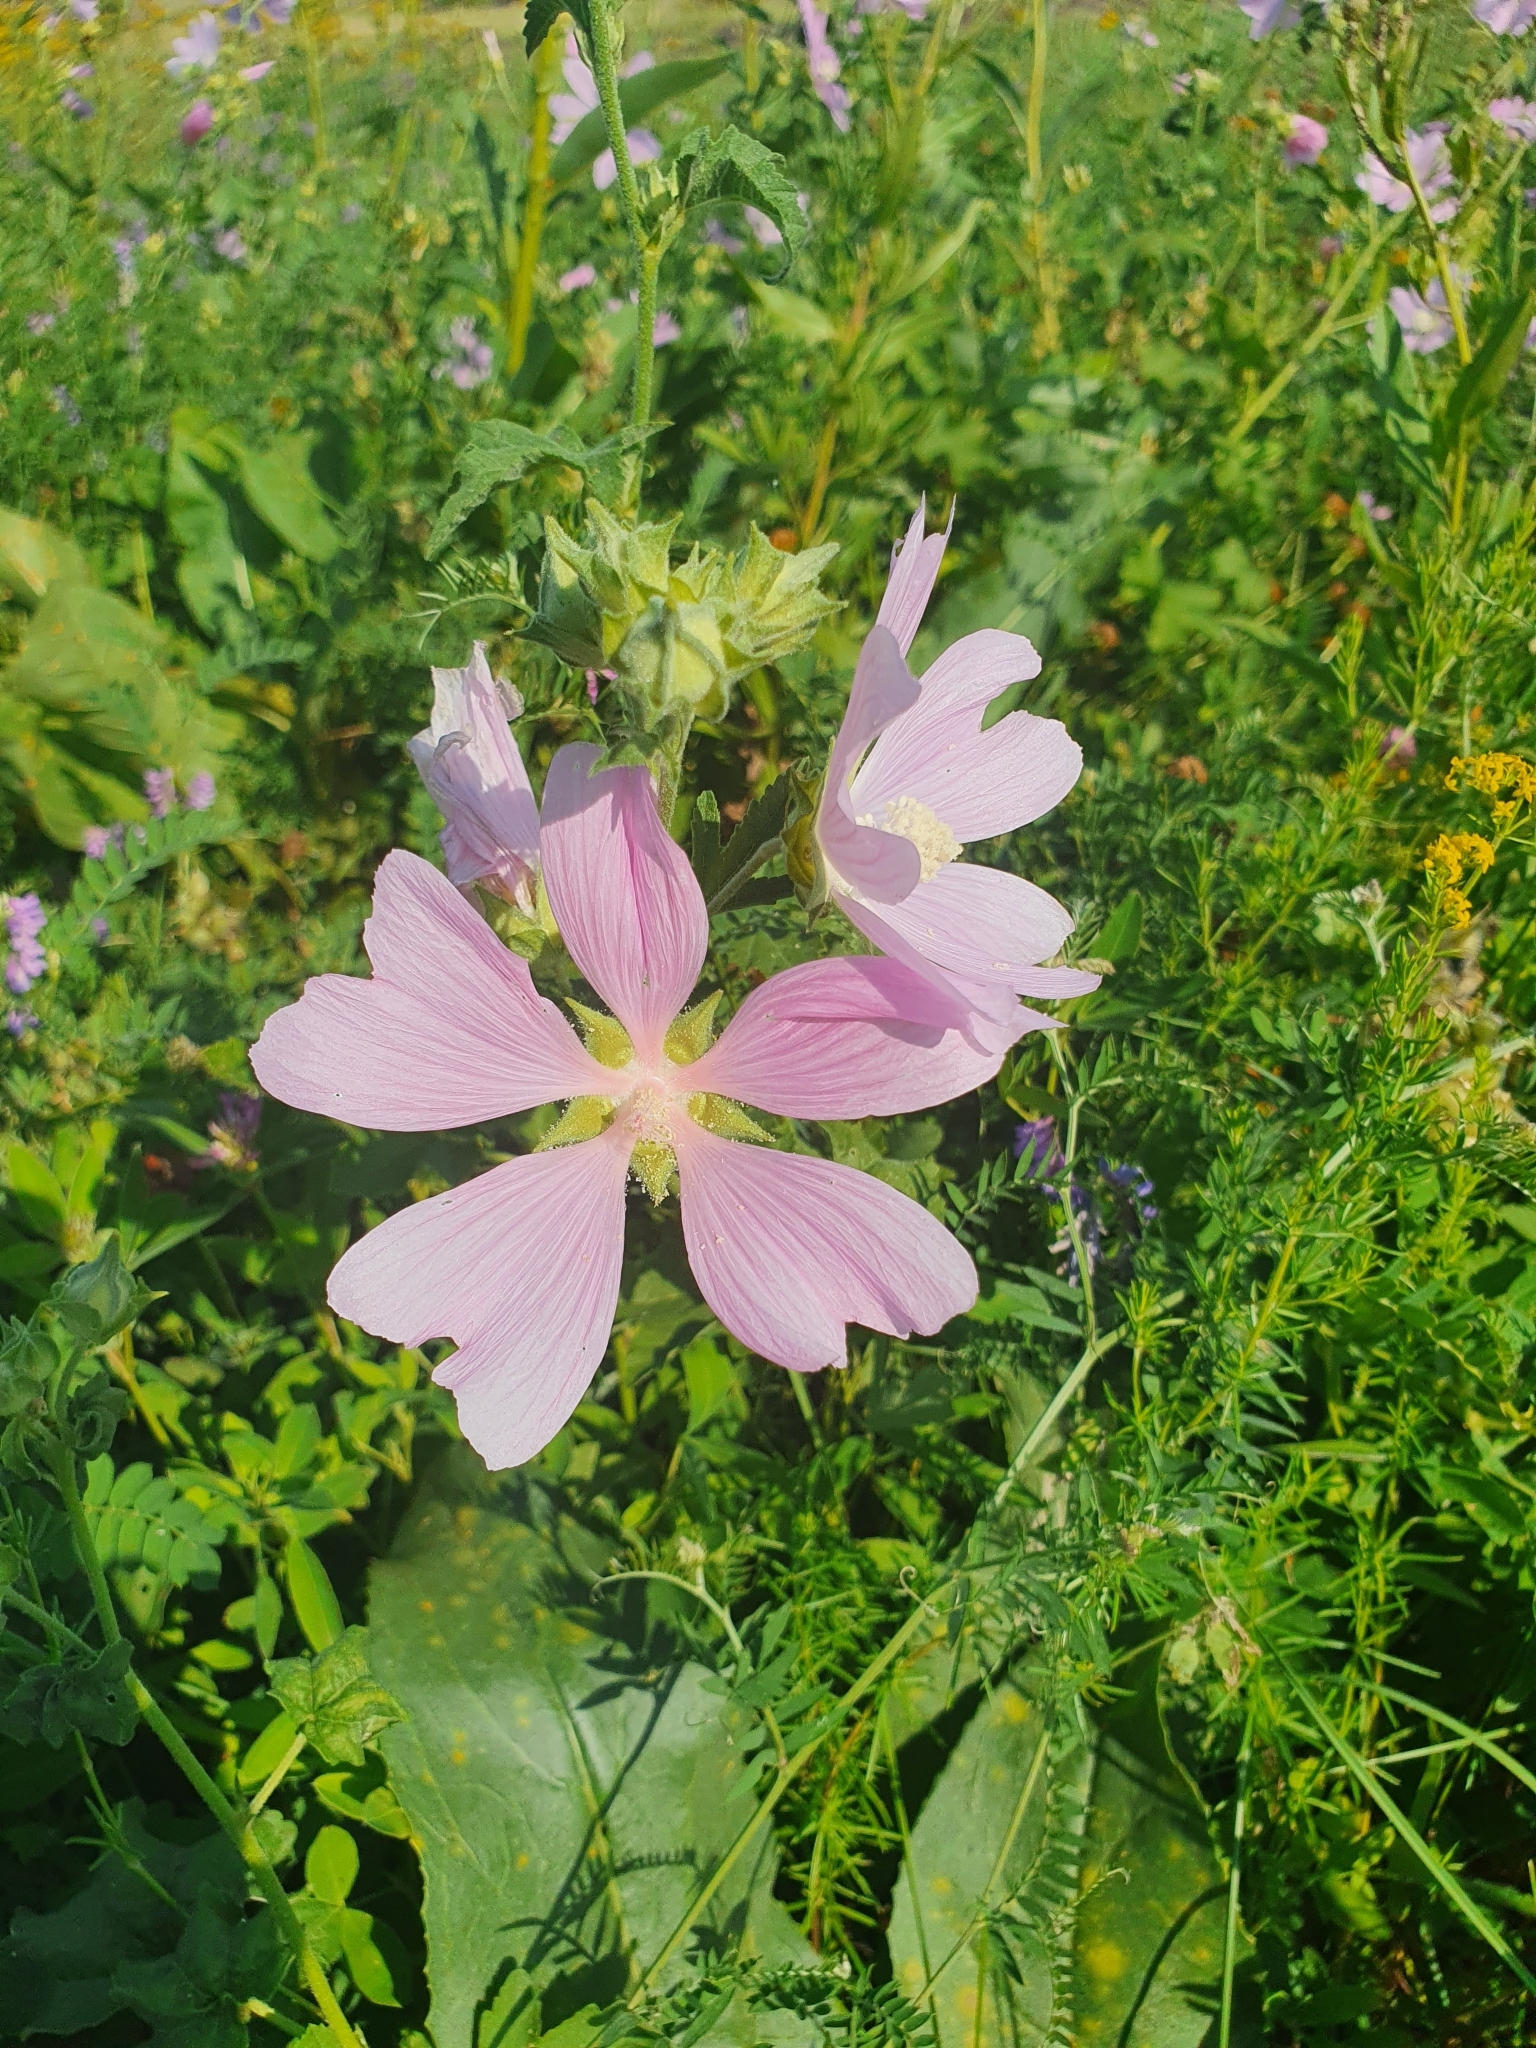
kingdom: Plantae
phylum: Tracheophyta
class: Magnoliopsida
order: Malvales
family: Malvaceae
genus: Malva
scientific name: Malva thuringiaca
